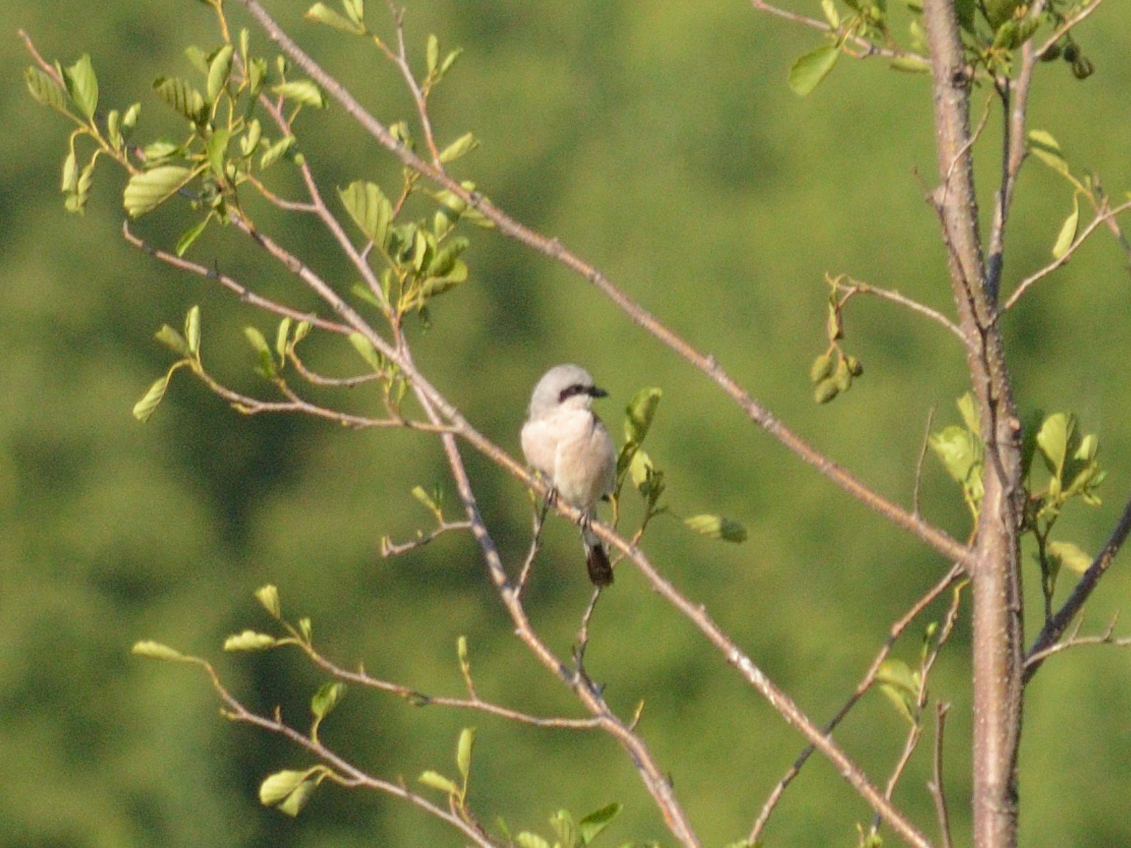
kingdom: Animalia
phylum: Chordata
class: Aves
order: Passeriformes
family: Laniidae
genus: Lanius
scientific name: Lanius collurio
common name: Red-backed shrike
